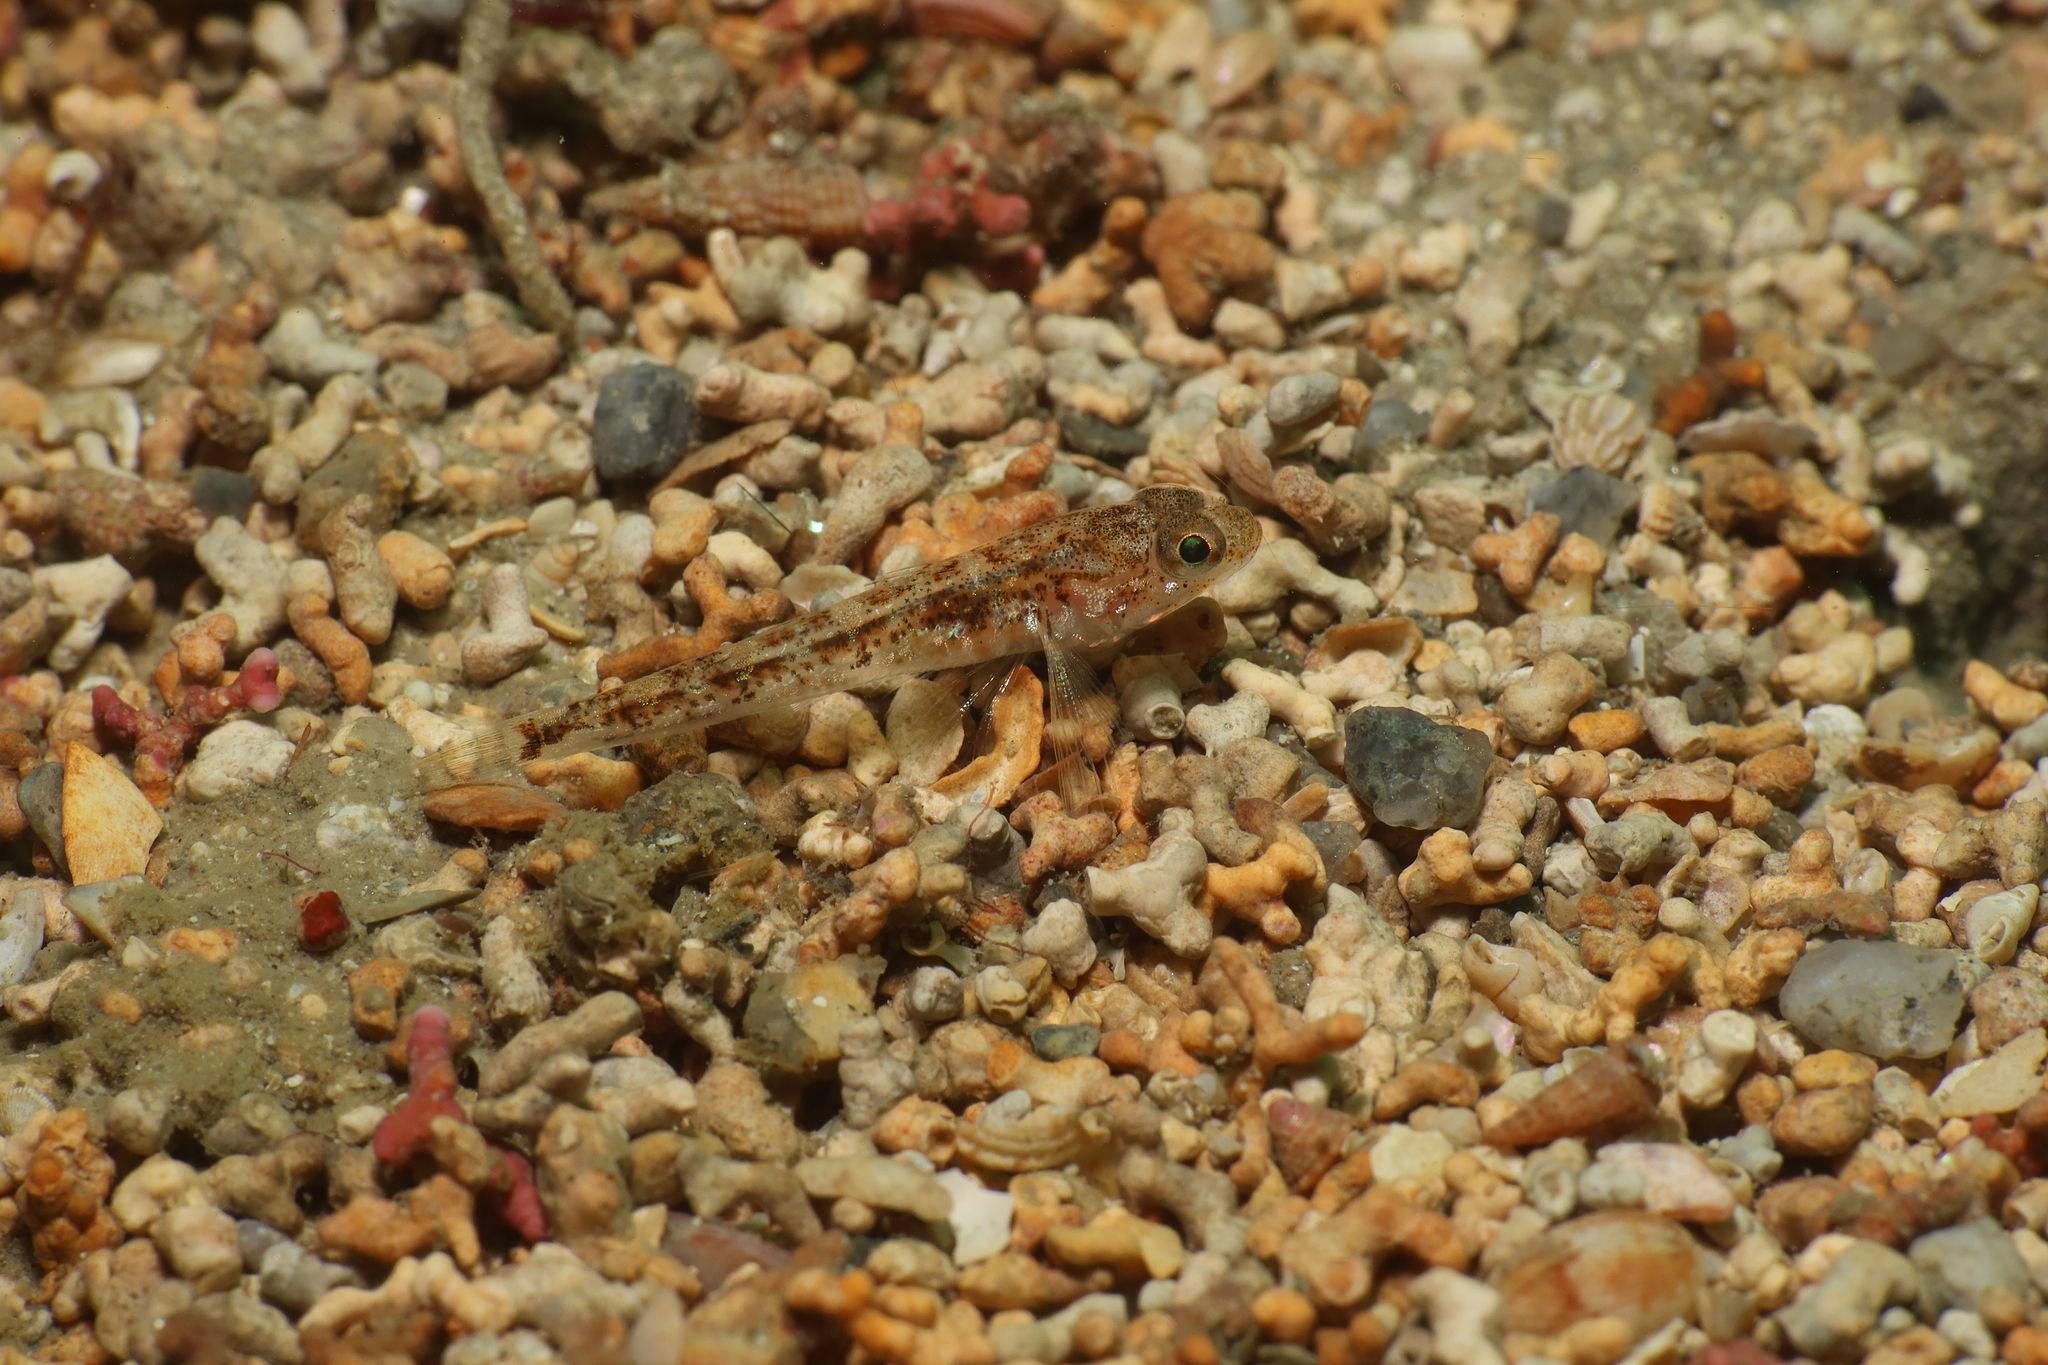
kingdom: Animalia
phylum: Chordata
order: Perciformes
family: Gobiidae
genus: Pomatoschistus
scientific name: Pomatoschistus pictus
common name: Painted goby
